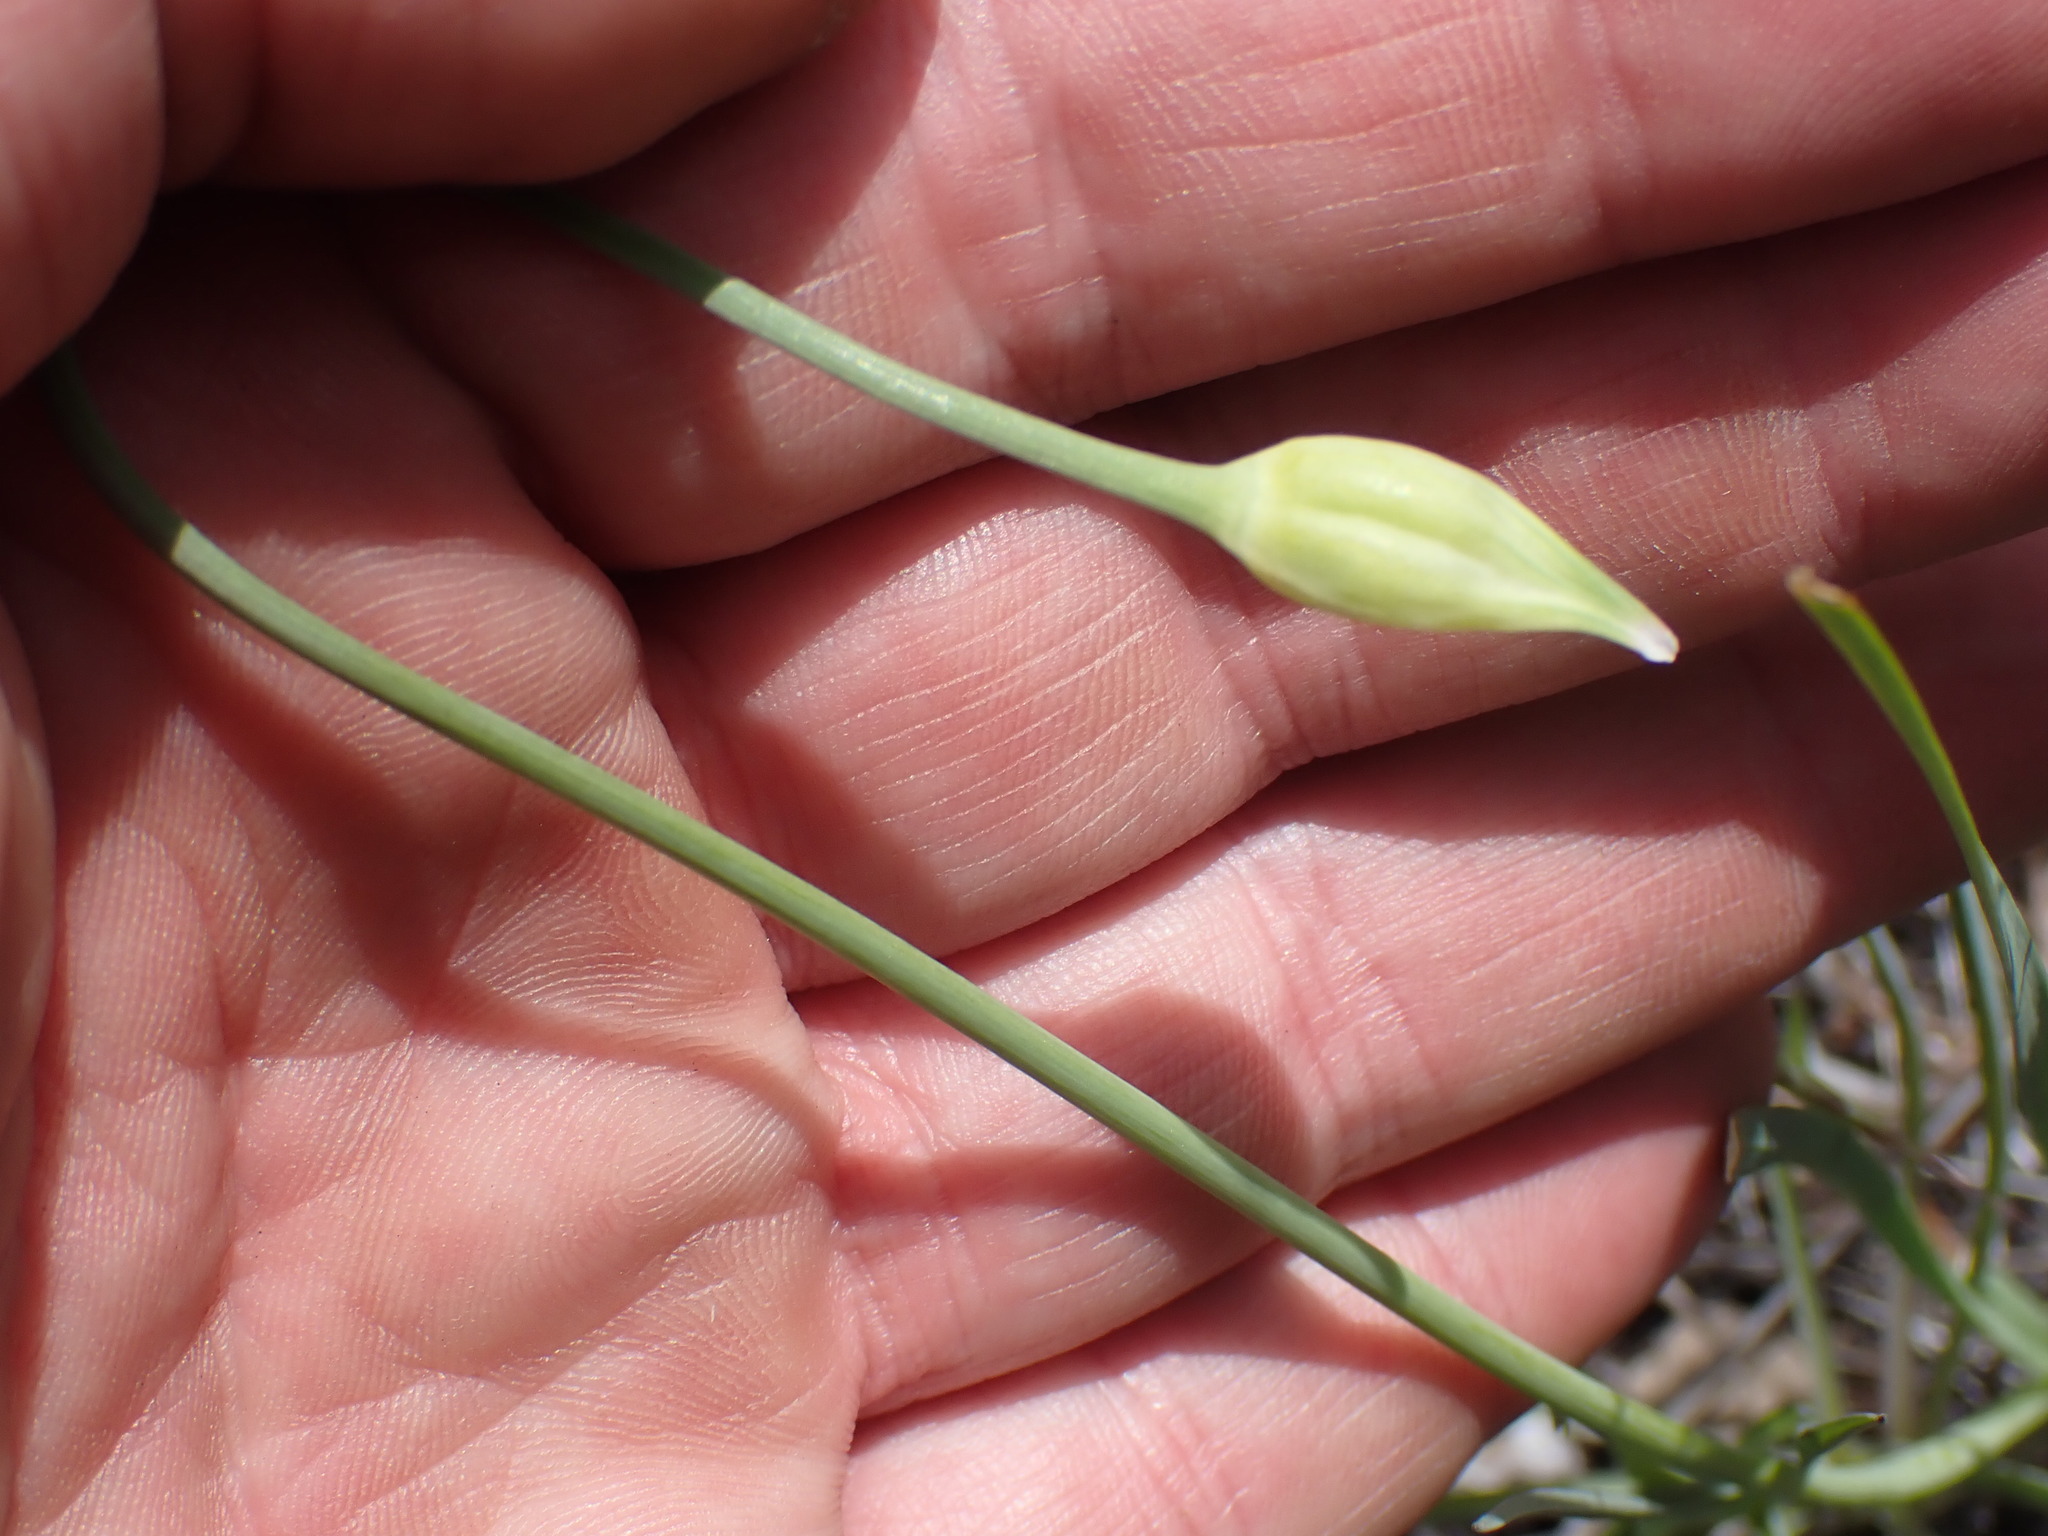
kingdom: Plantae
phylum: Tracheophyta
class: Liliopsida
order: Asparagales
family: Amaryllidaceae
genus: Allium
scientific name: Allium cernuum
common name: Nodding onion
